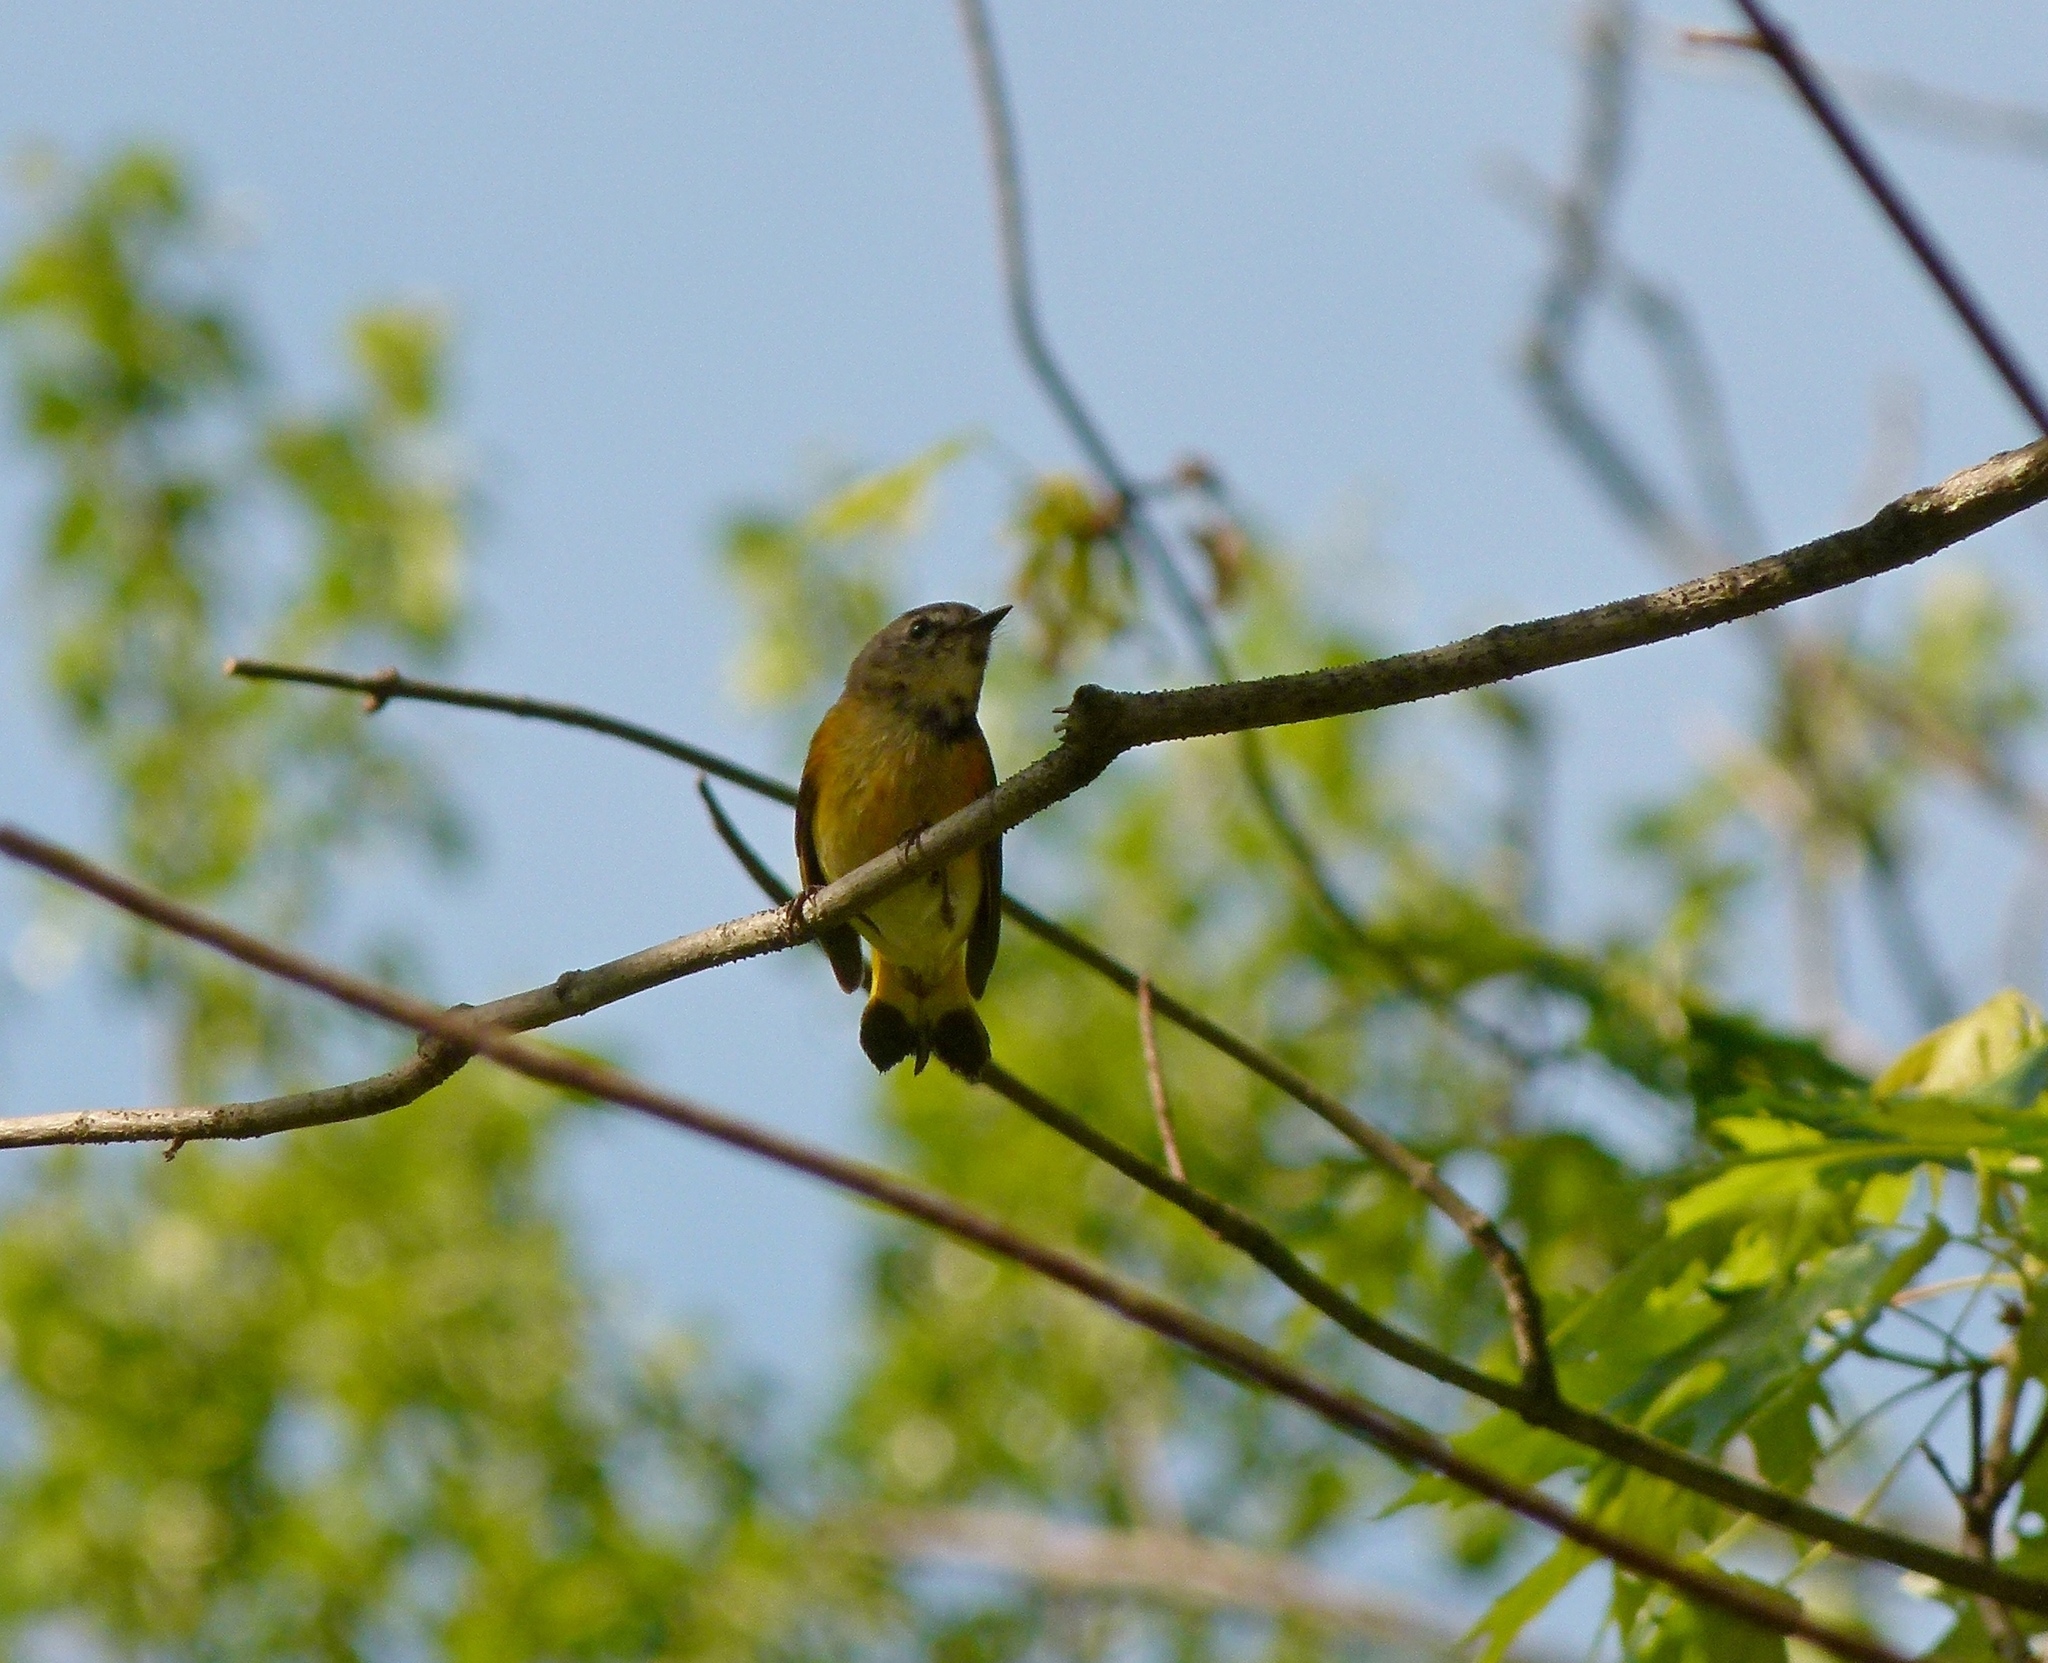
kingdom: Animalia
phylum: Chordata
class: Aves
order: Passeriformes
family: Parulidae
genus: Setophaga
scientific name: Setophaga ruticilla
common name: American redstart
